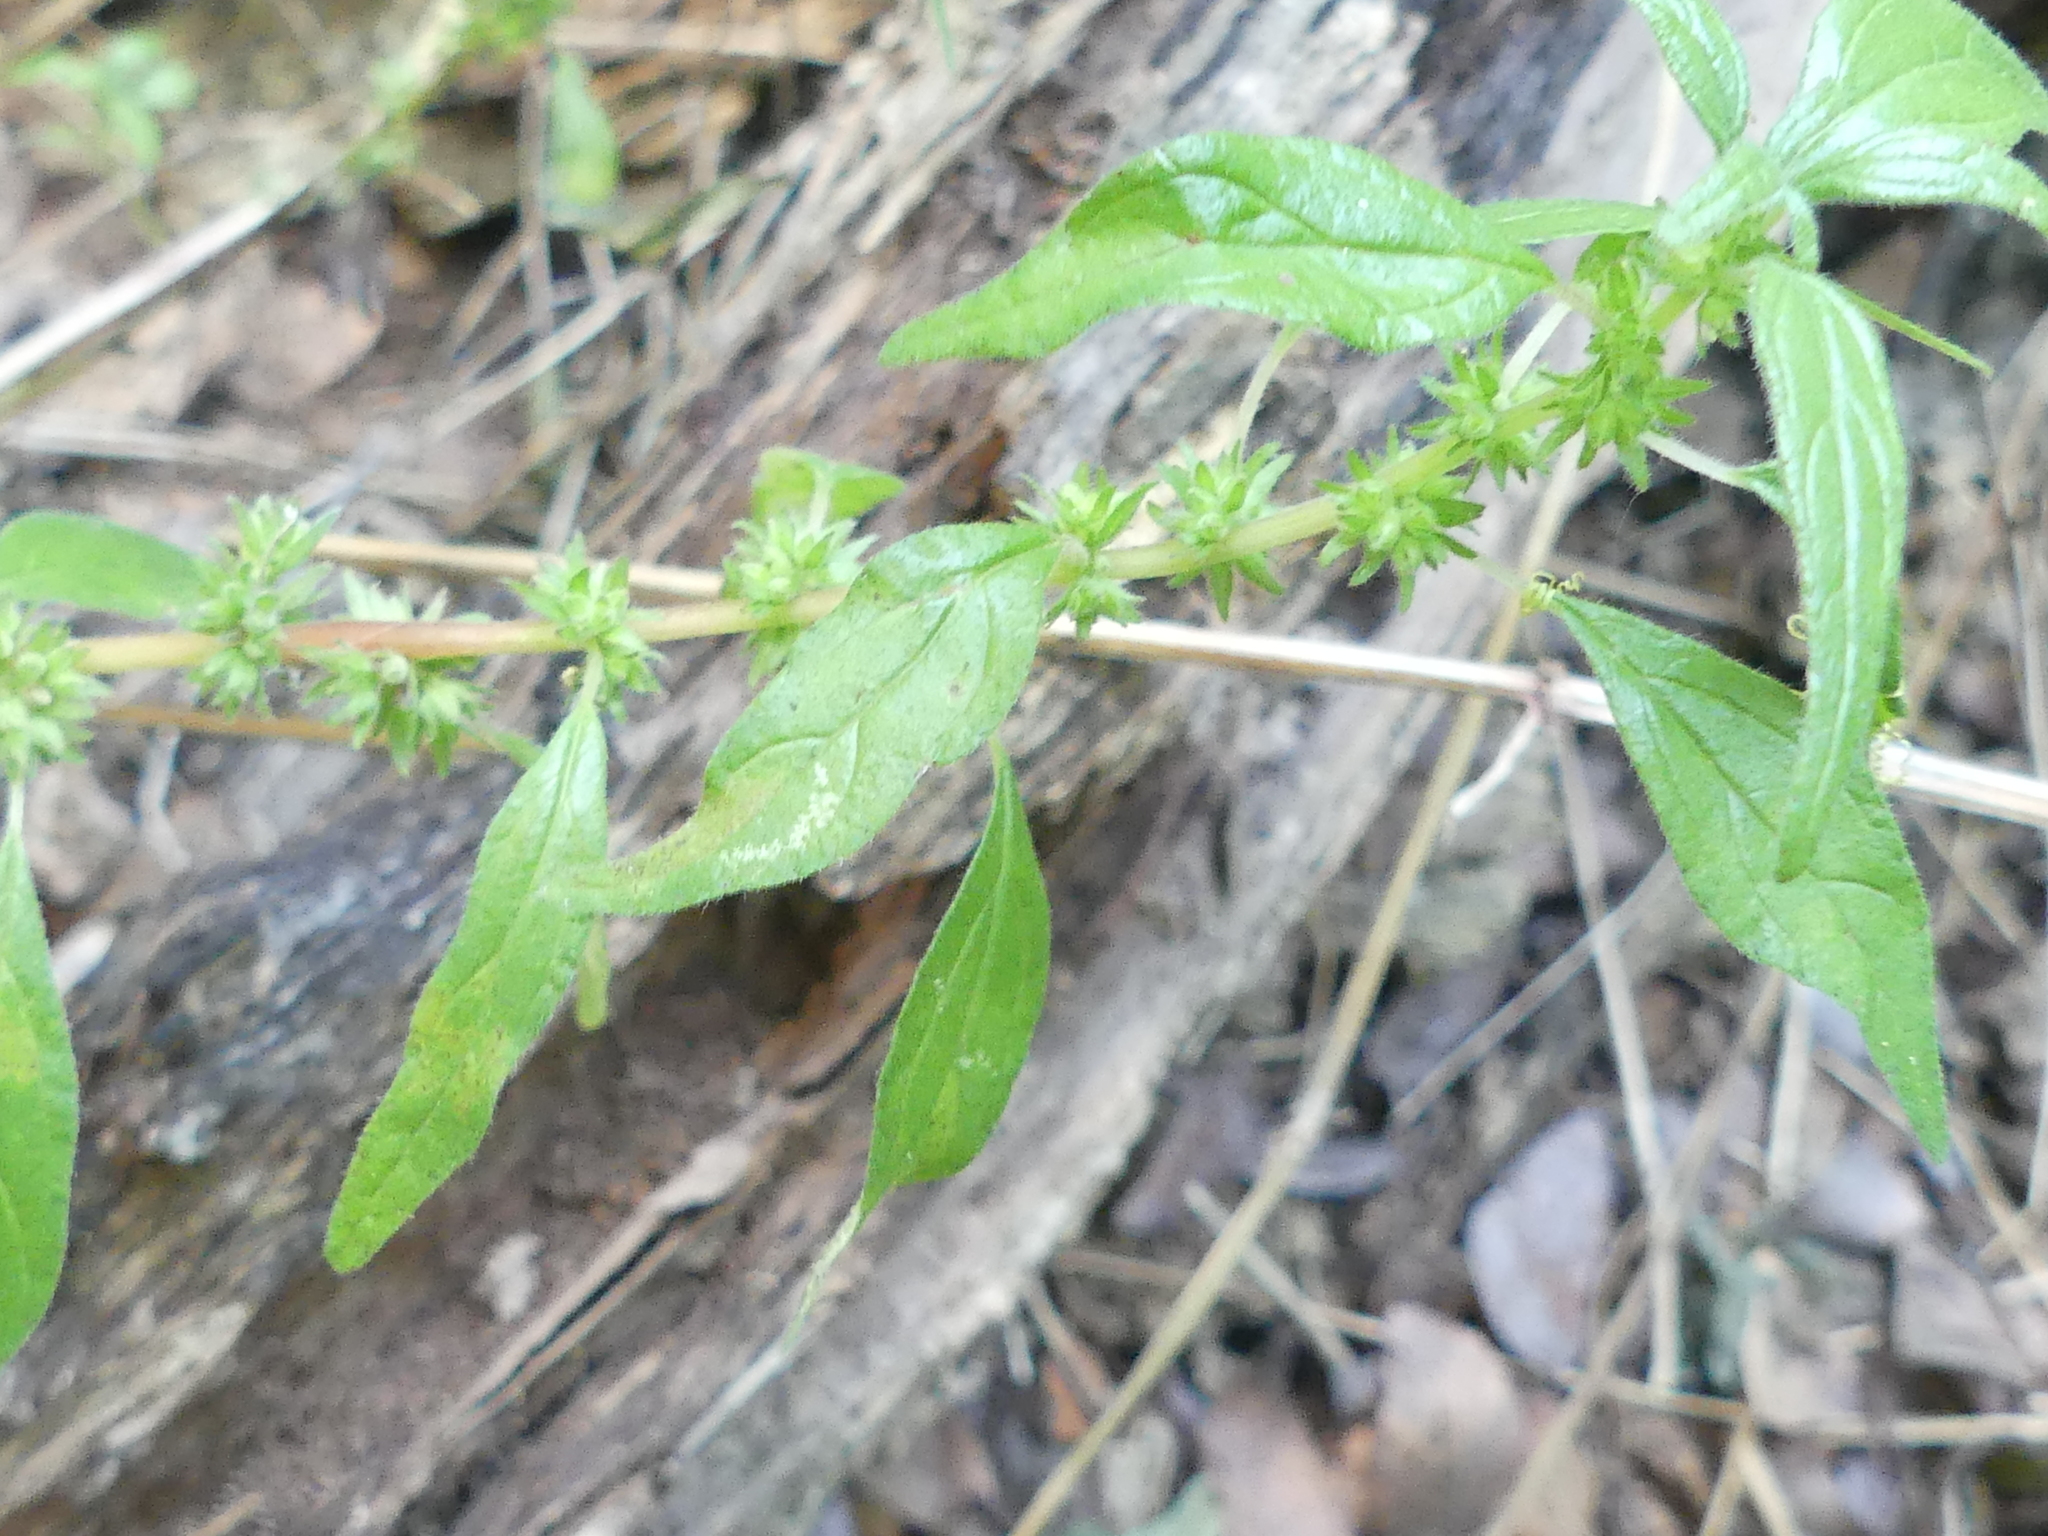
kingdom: Plantae
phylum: Tracheophyta
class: Magnoliopsida
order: Rosales
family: Urticaceae
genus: Parietaria
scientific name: Parietaria pensylvanica
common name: Pennsylvania pellitory
